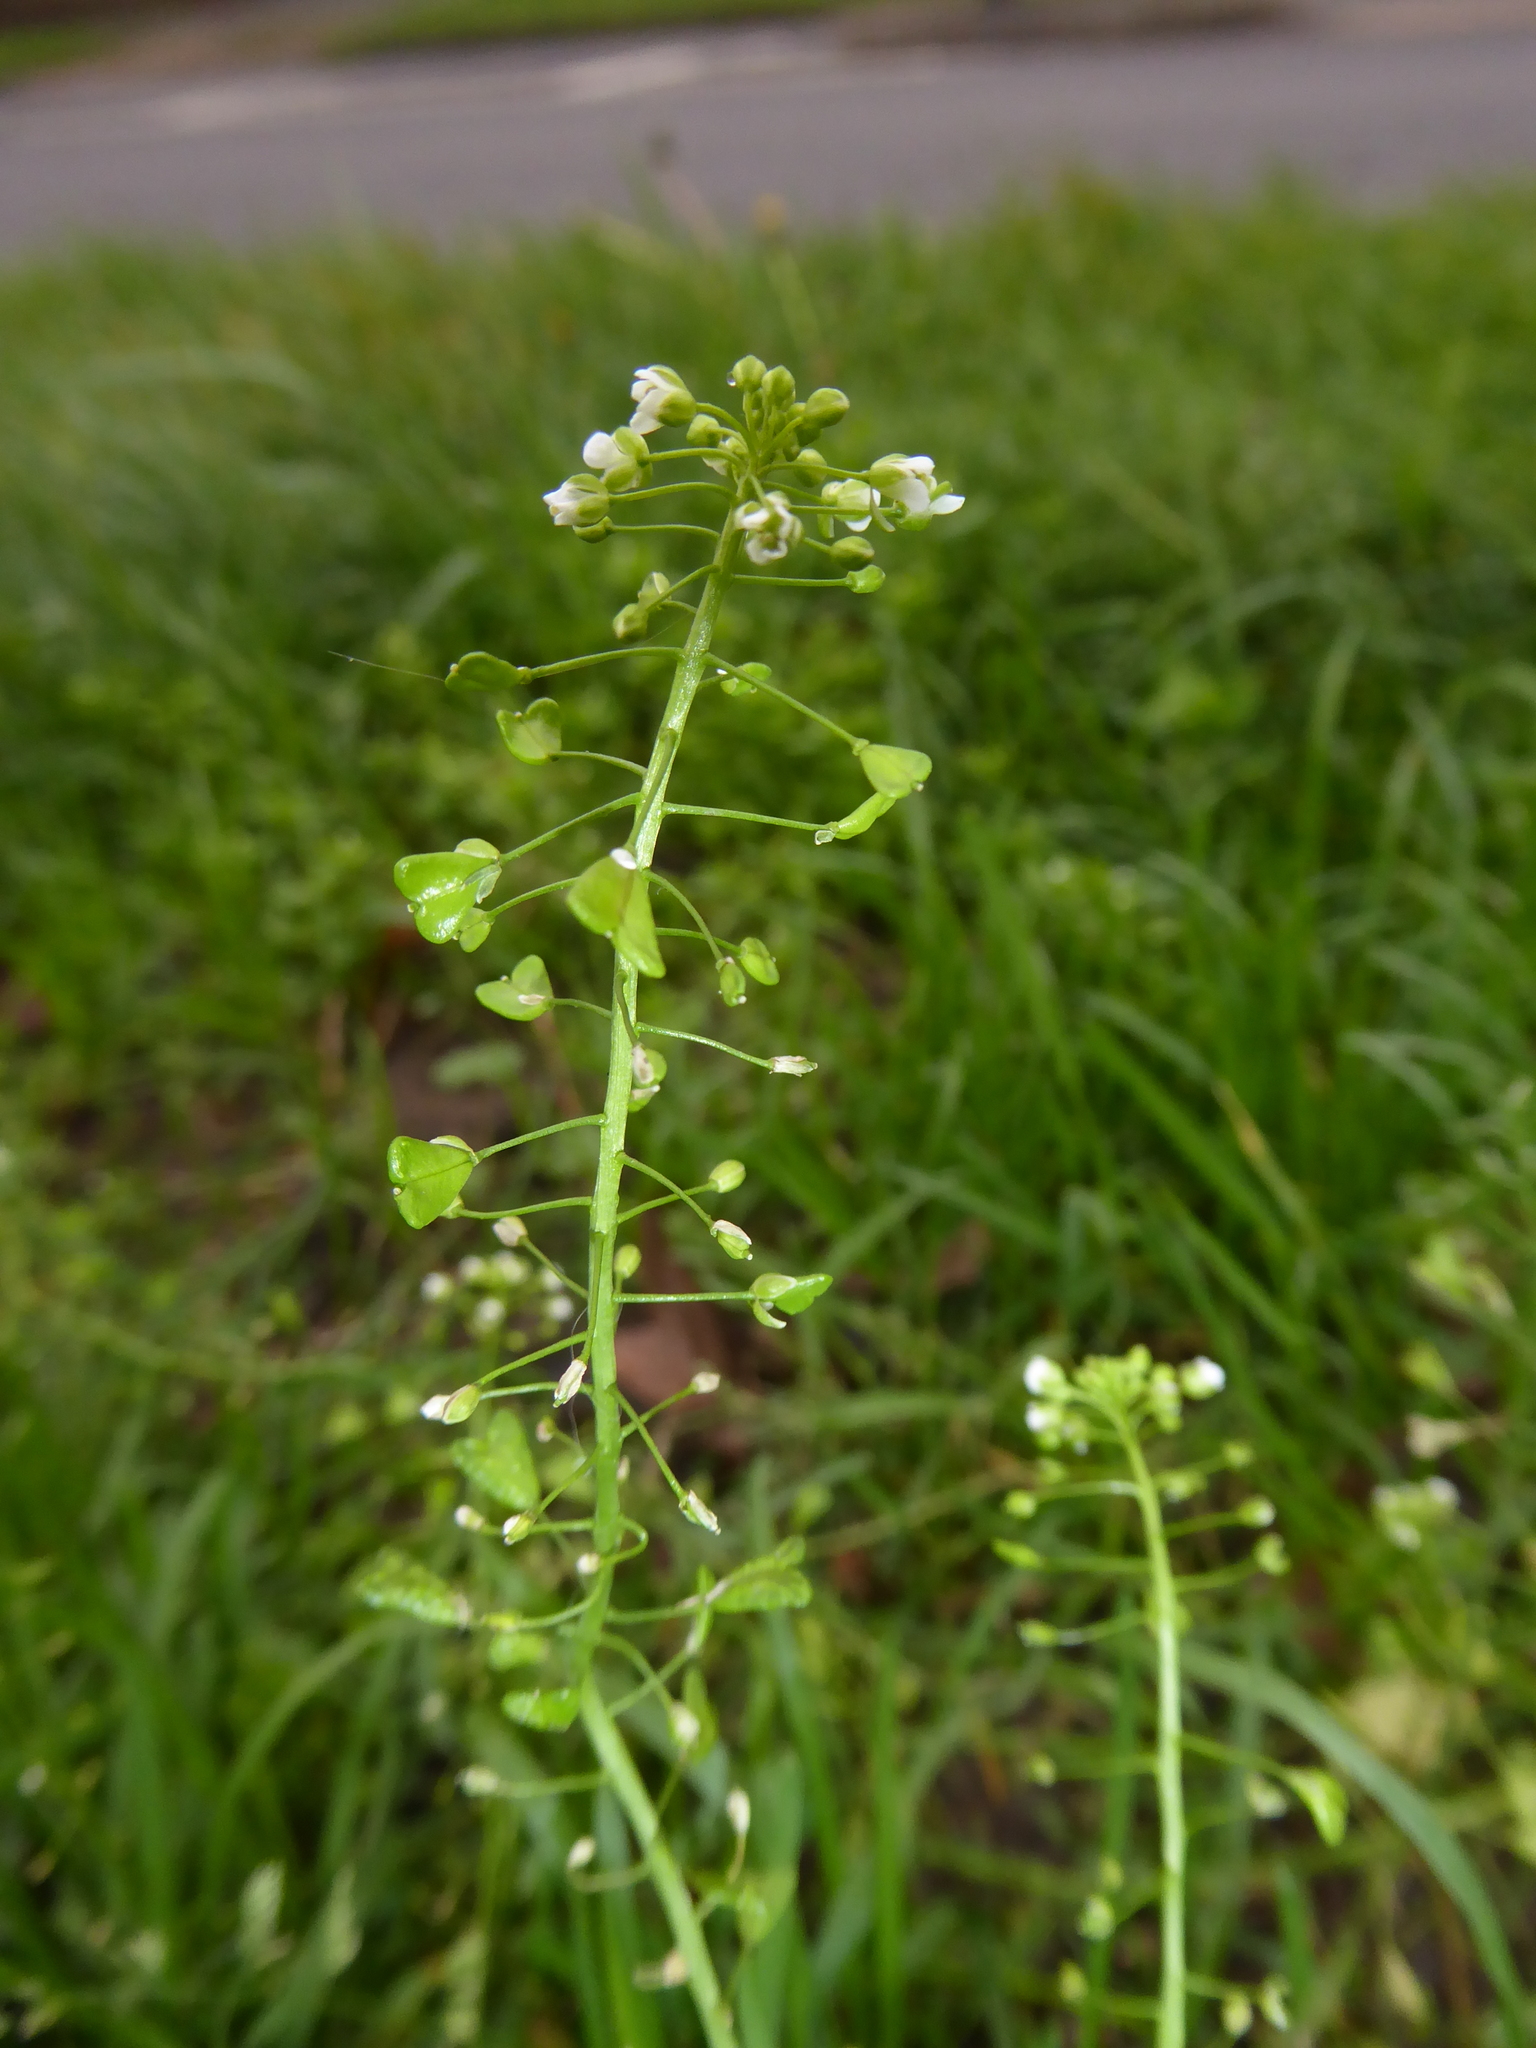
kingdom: Plantae
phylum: Tracheophyta
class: Magnoliopsida
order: Brassicales
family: Brassicaceae
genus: Capsella
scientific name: Capsella bursa-pastoris
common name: Shepherd's purse
